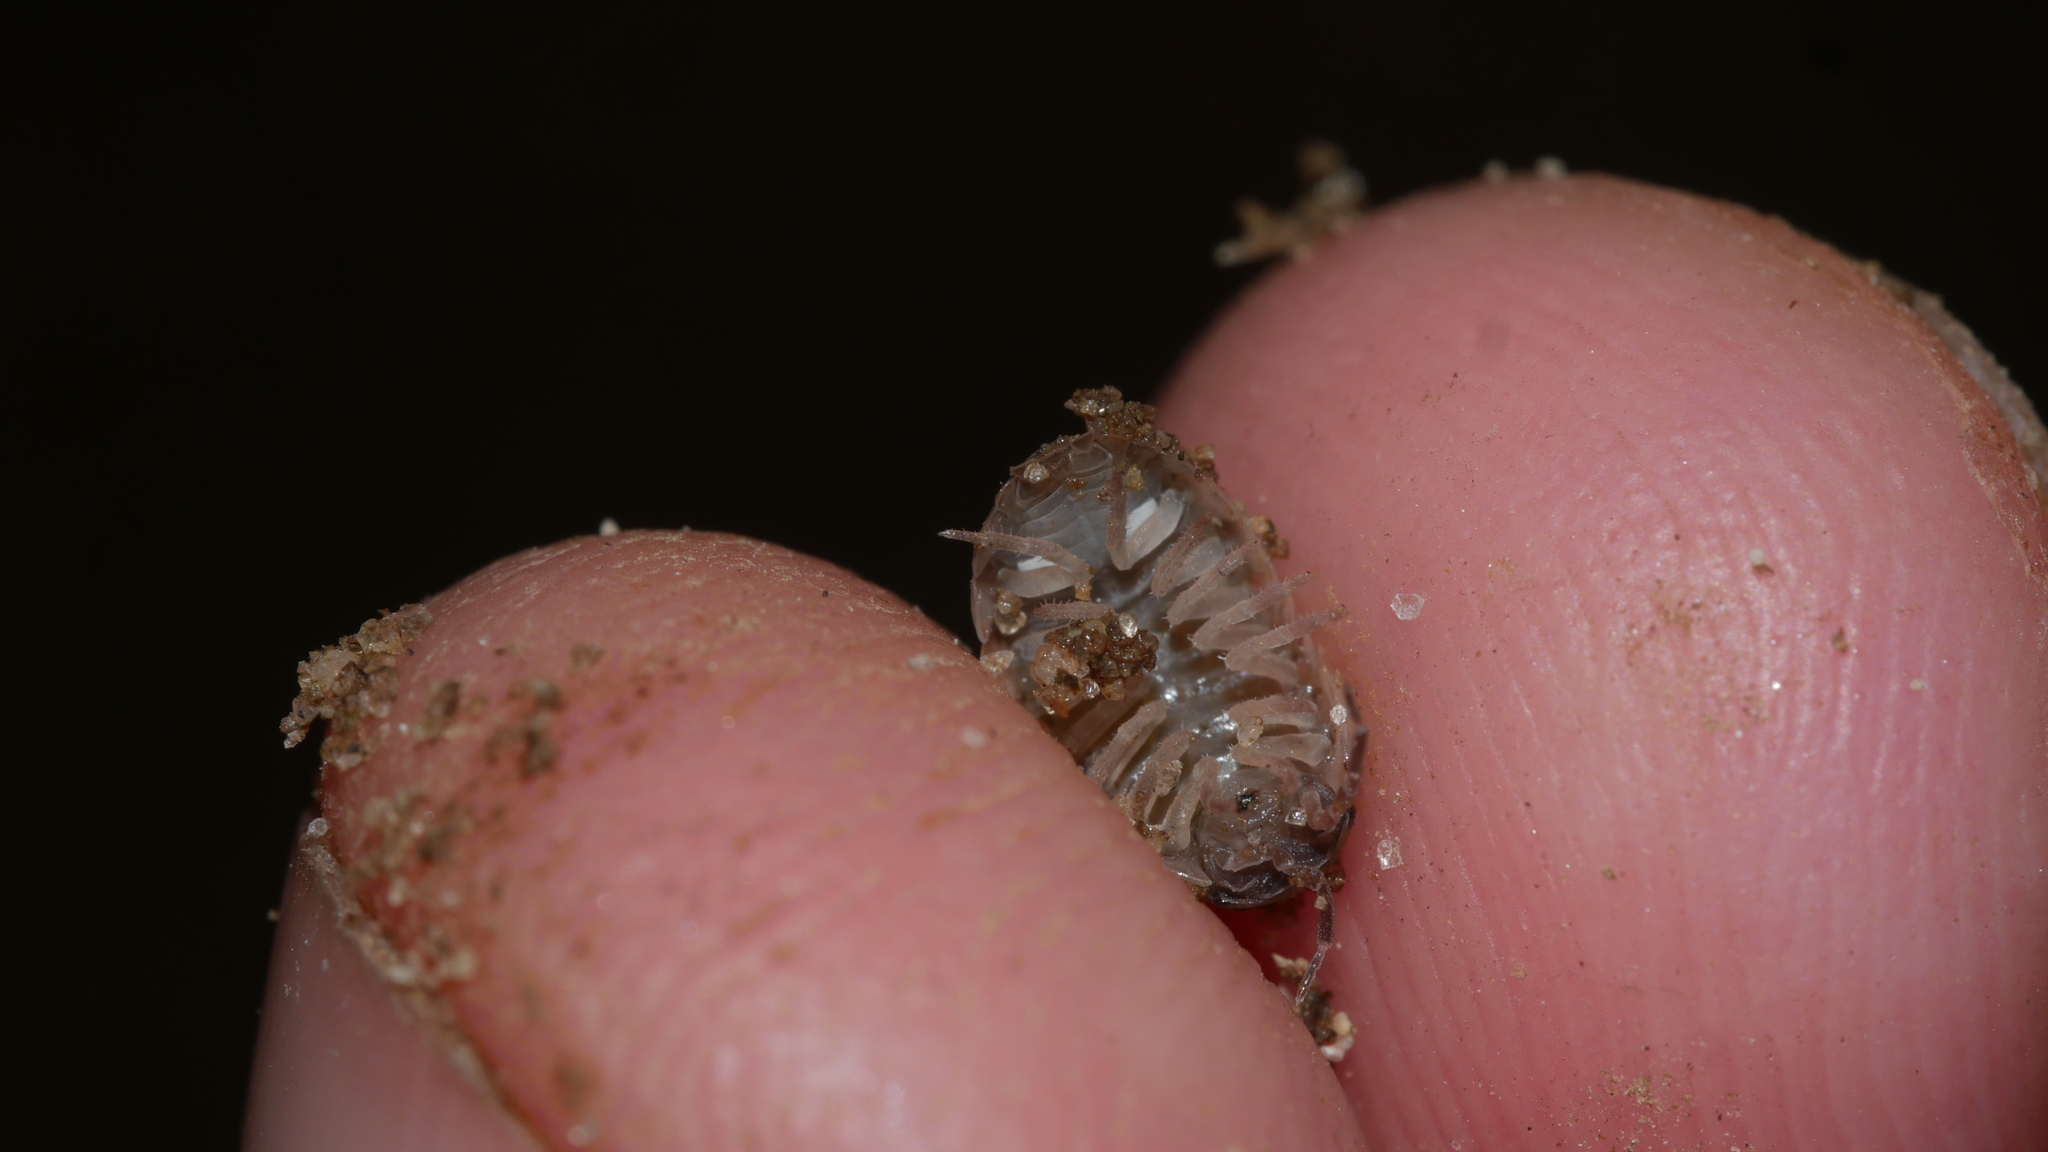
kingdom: Animalia
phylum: Arthropoda
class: Malacostraca
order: Isopoda
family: Armadillidiidae
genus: Armadillidium
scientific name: Armadillidium vulgare
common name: Common pill woodlouse
